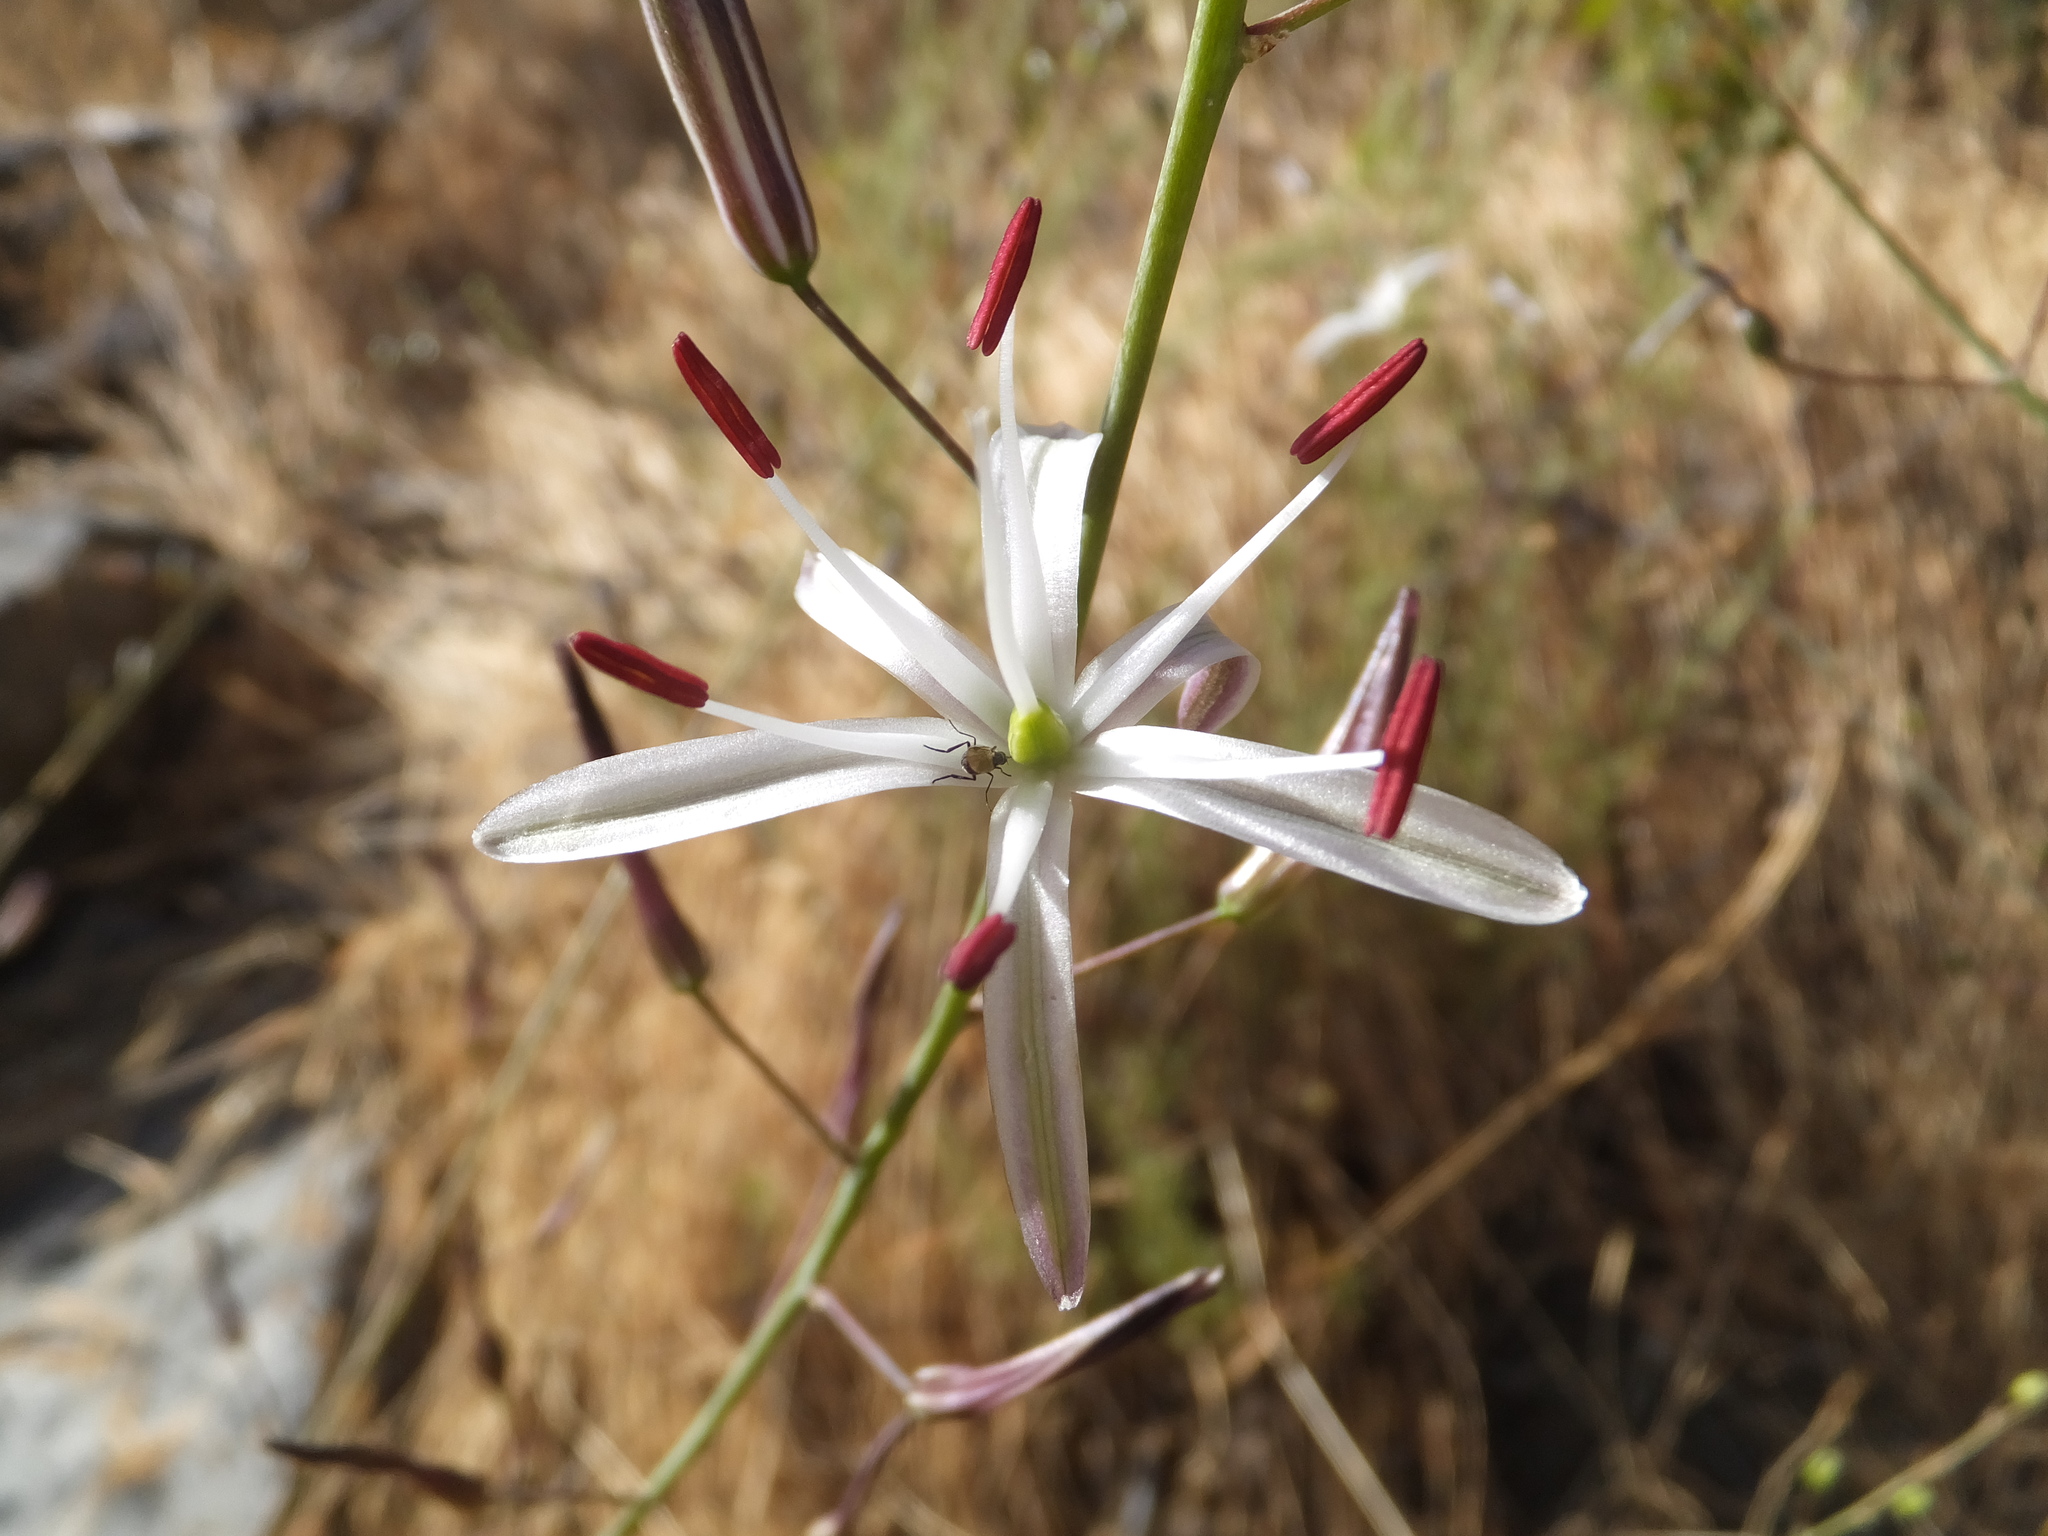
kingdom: Plantae
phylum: Tracheophyta
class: Liliopsida
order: Asparagales
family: Asparagaceae
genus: Chlorogalum
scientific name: Chlorogalum pomeridianum
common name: Amole
